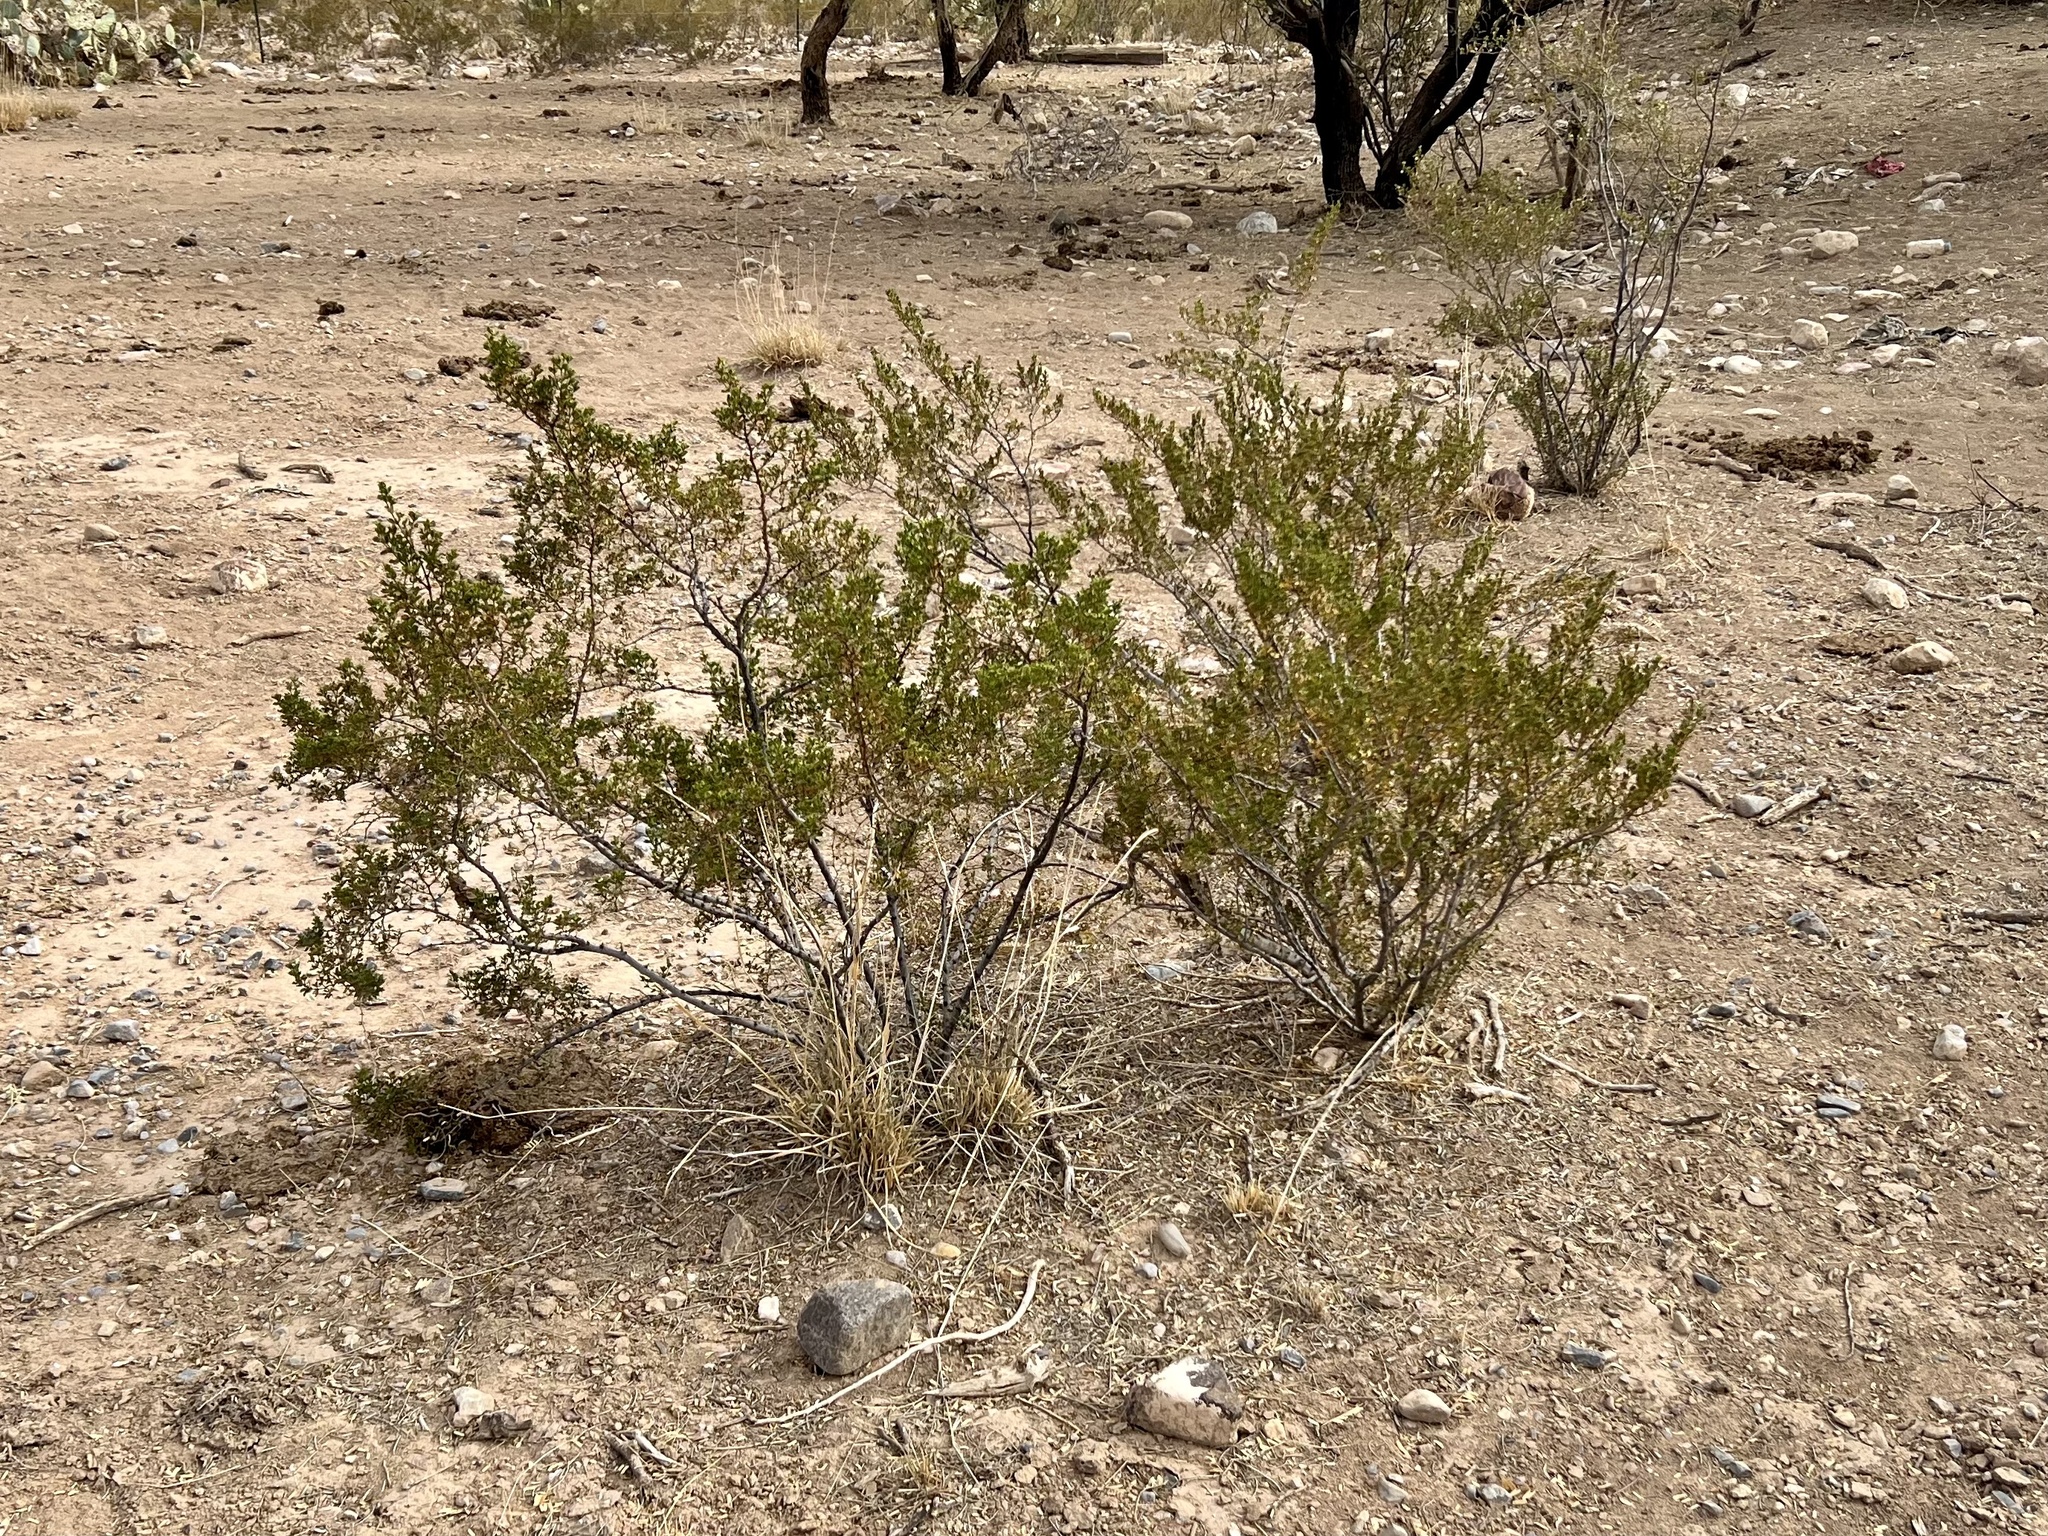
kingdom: Plantae
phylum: Tracheophyta
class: Magnoliopsida
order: Zygophyllales
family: Zygophyllaceae
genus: Larrea
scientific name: Larrea tridentata
